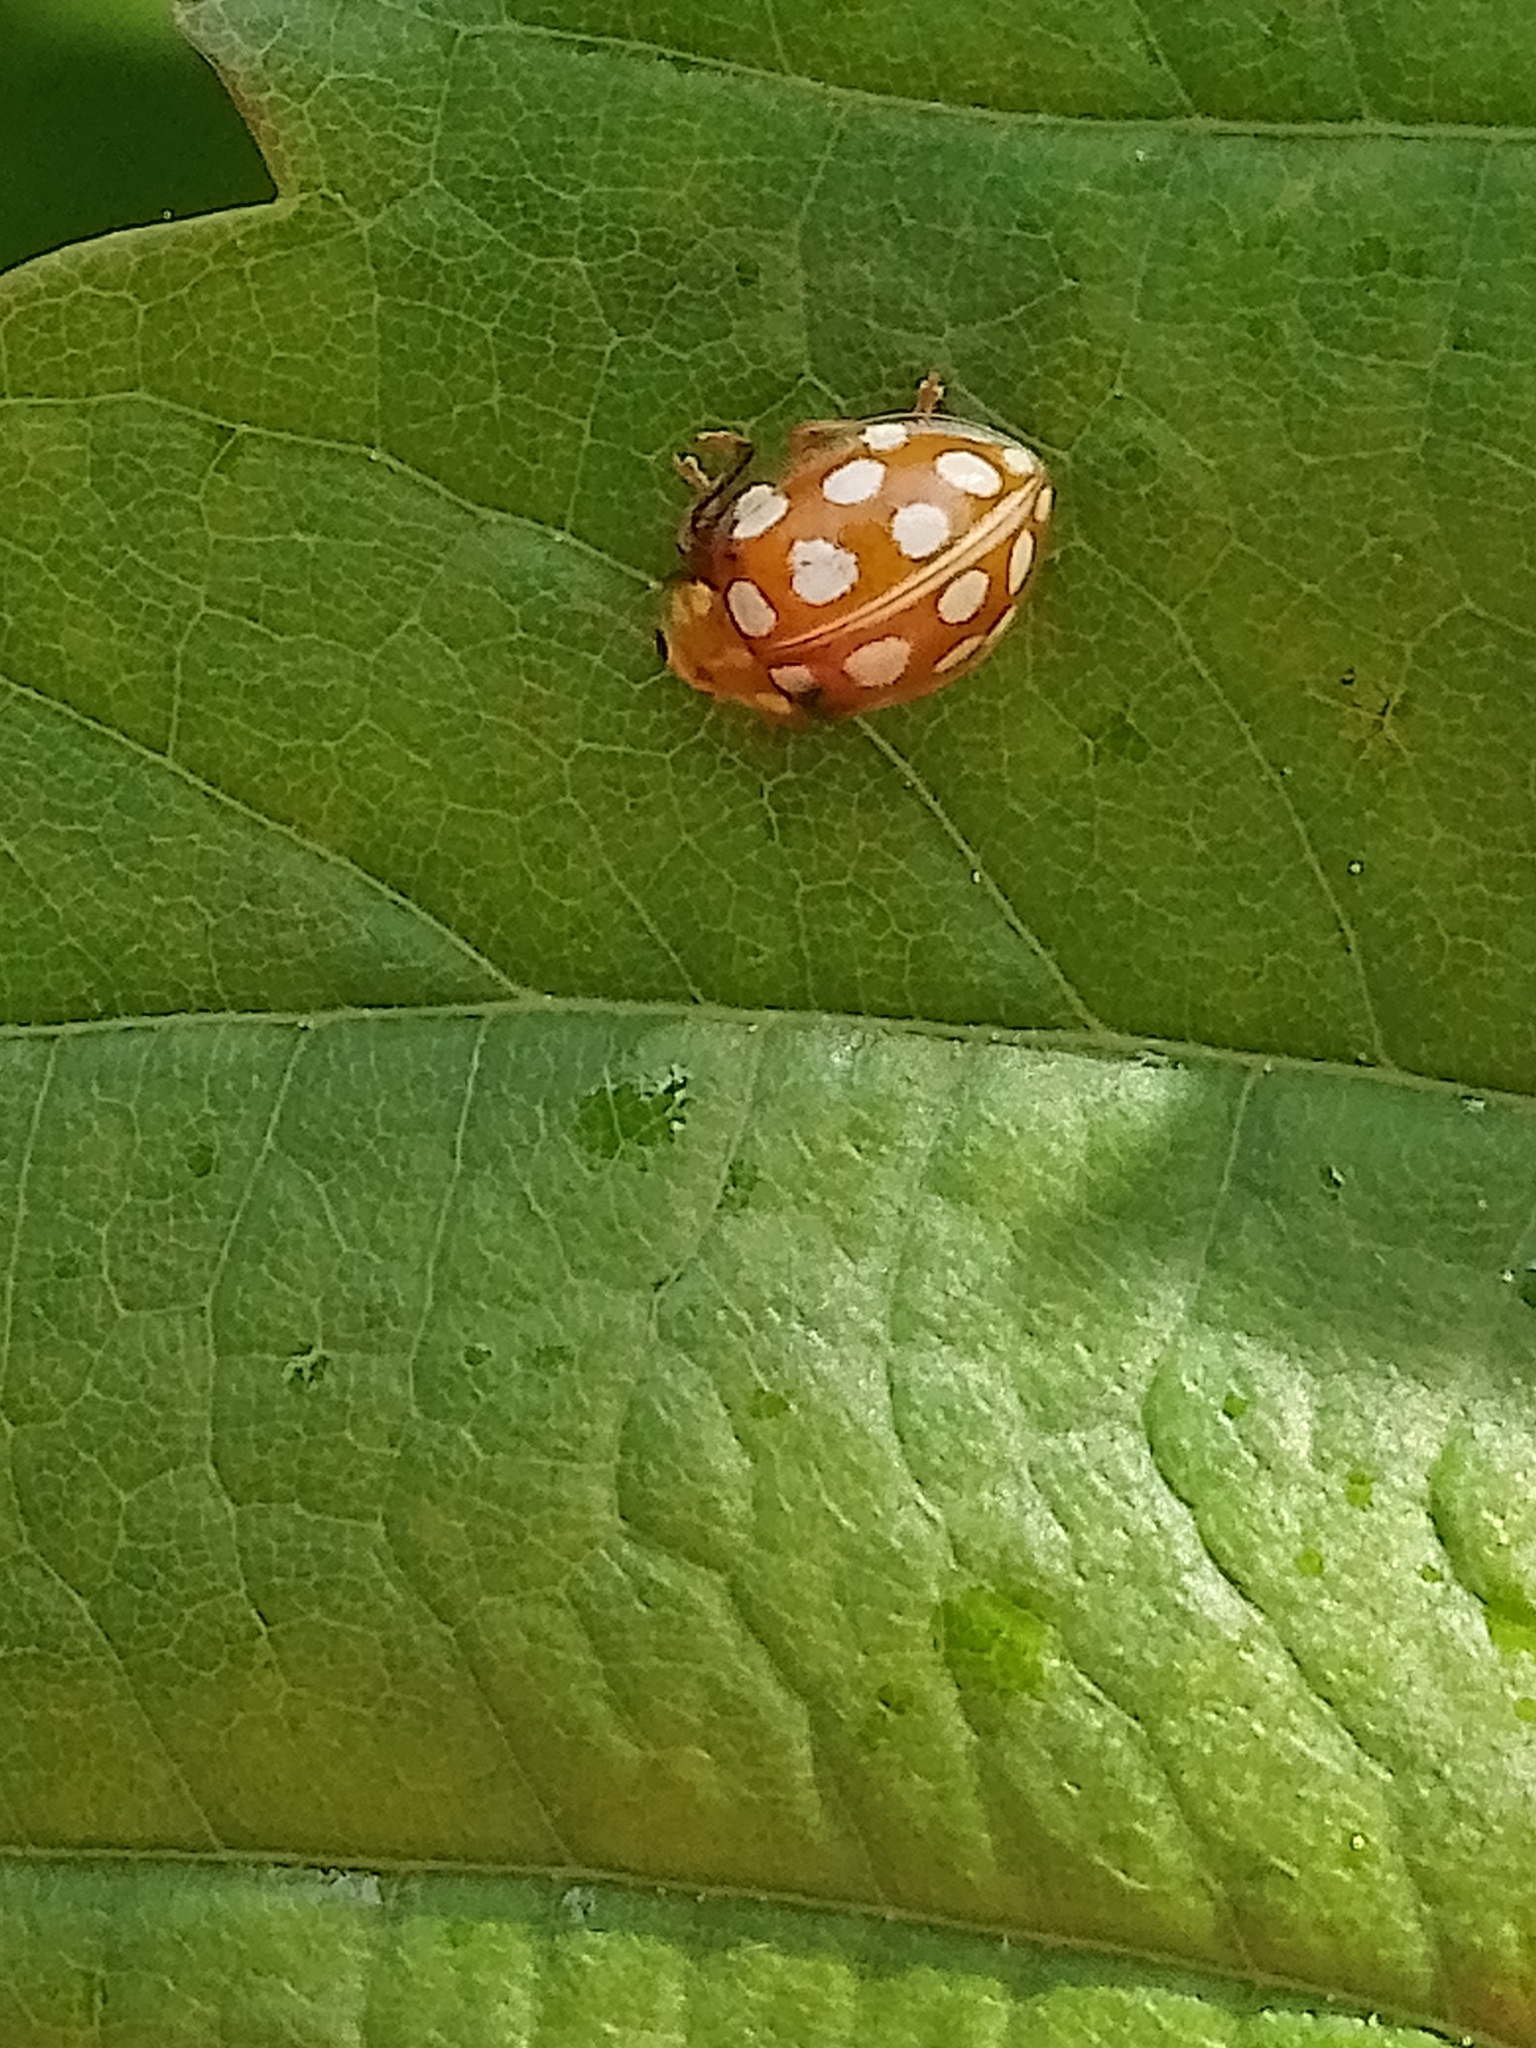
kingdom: Animalia
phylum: Arthropoda
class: Insecta
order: Coleoptera
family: Coccinellidae
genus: Halyzia
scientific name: Halyzia sedecimguttata
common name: Orange ladybird
